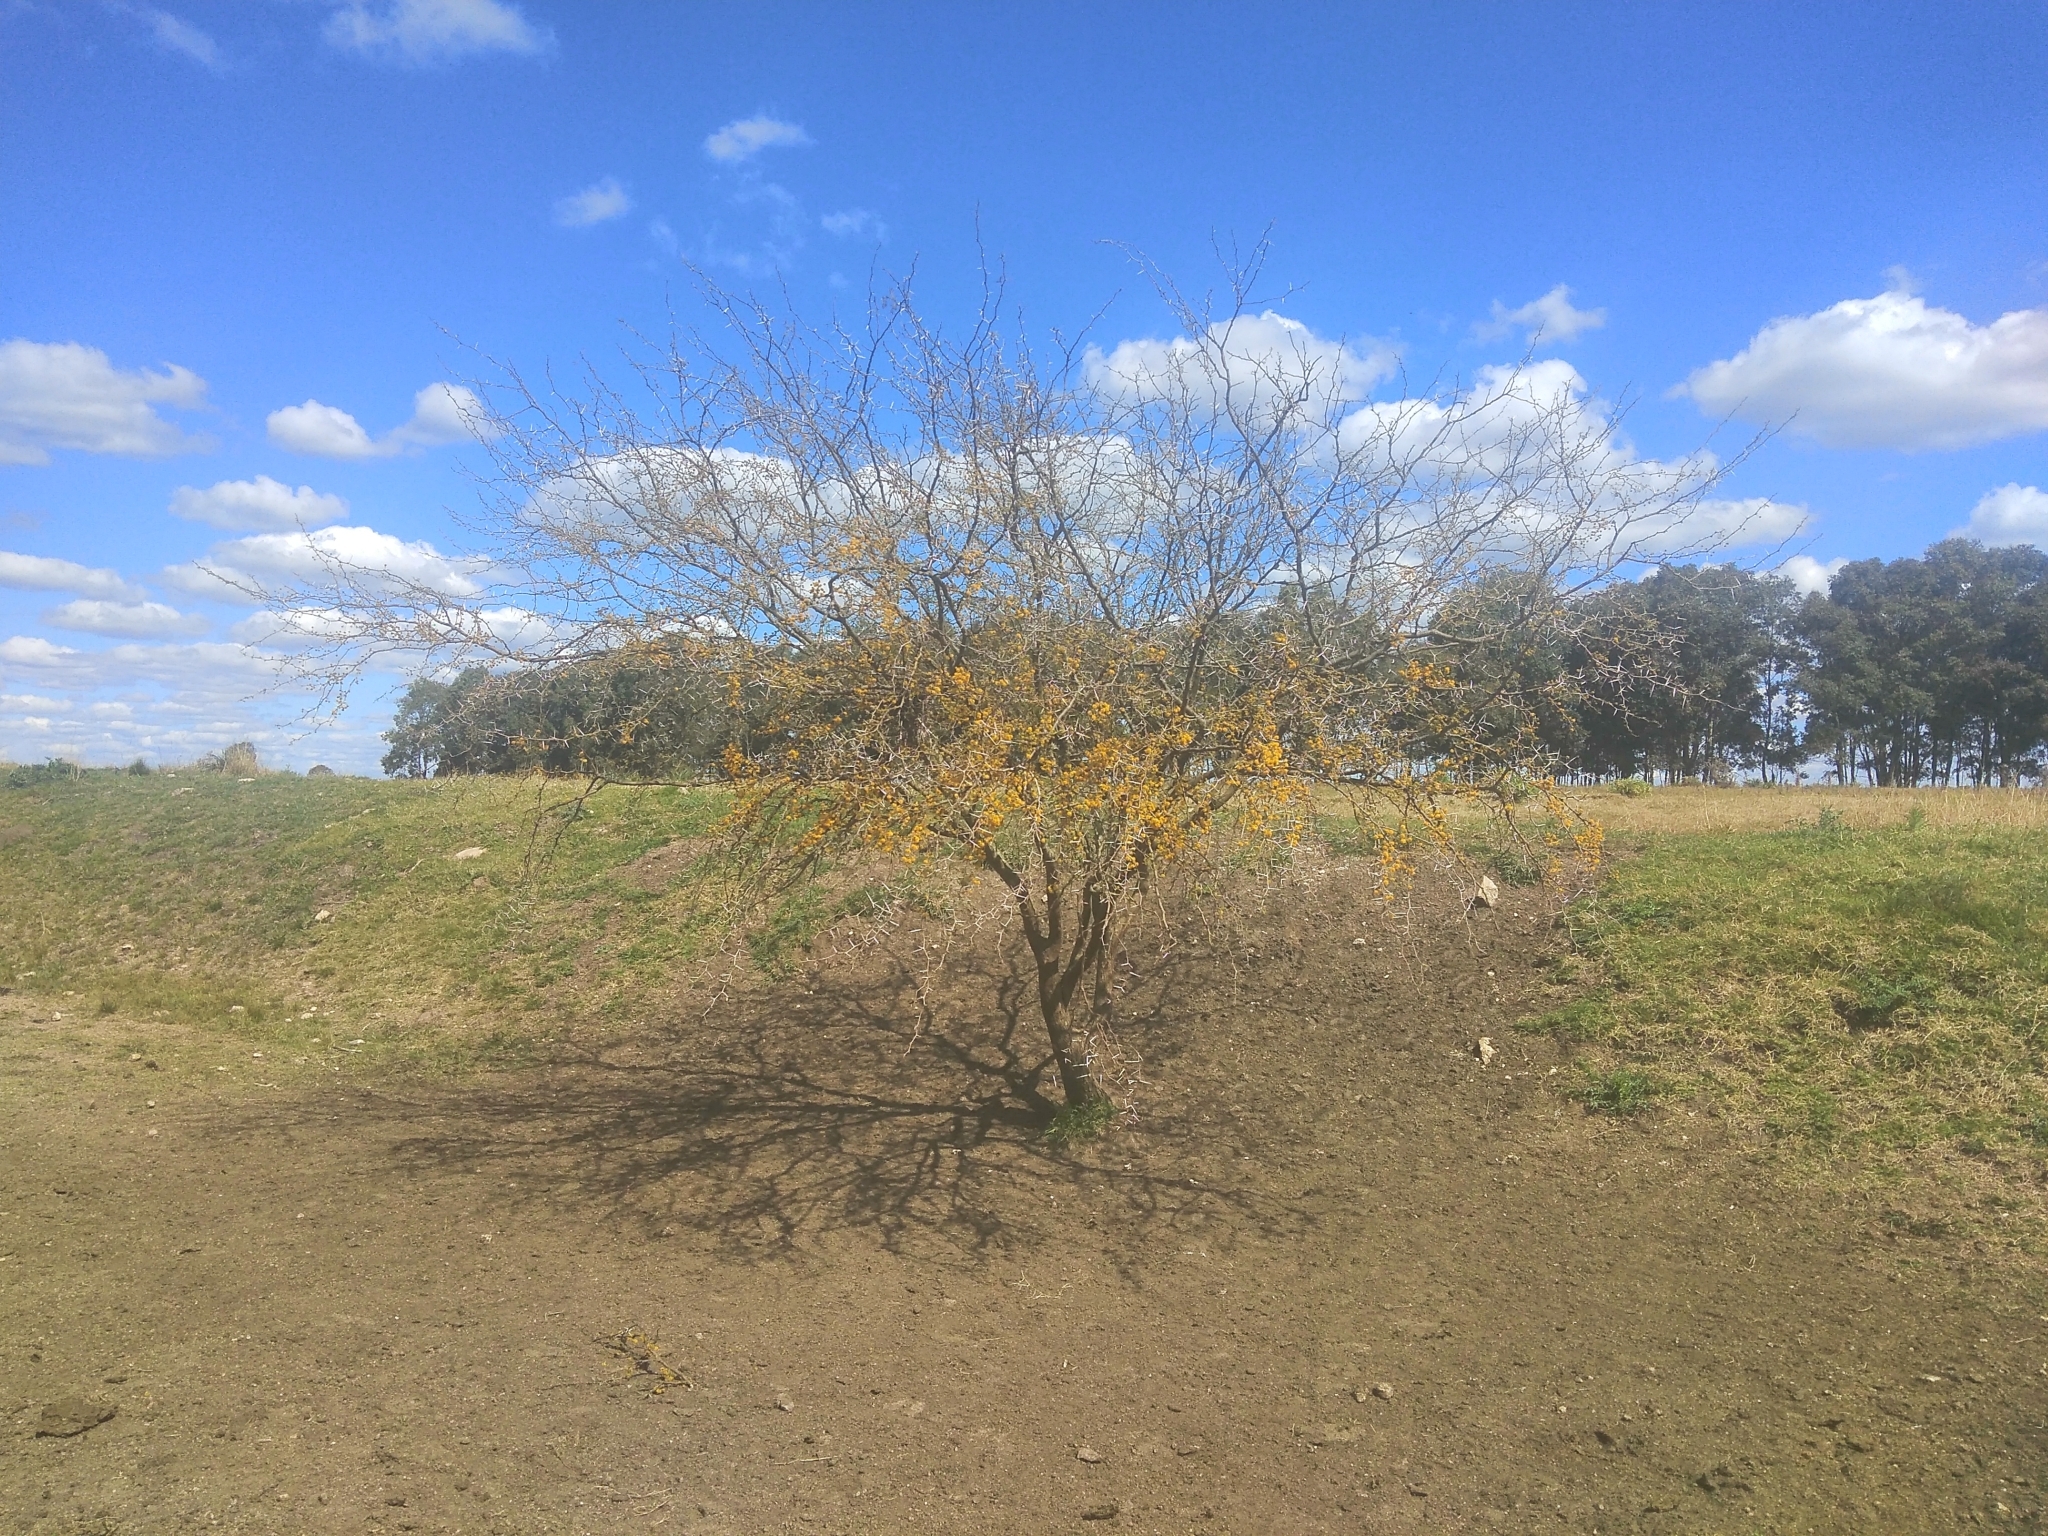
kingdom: Plantae
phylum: Tracheophyta
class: Magnoliopsida
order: Fabales
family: Fabaceae
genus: Vachellia
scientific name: Vachellia caven
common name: Roman cassie
